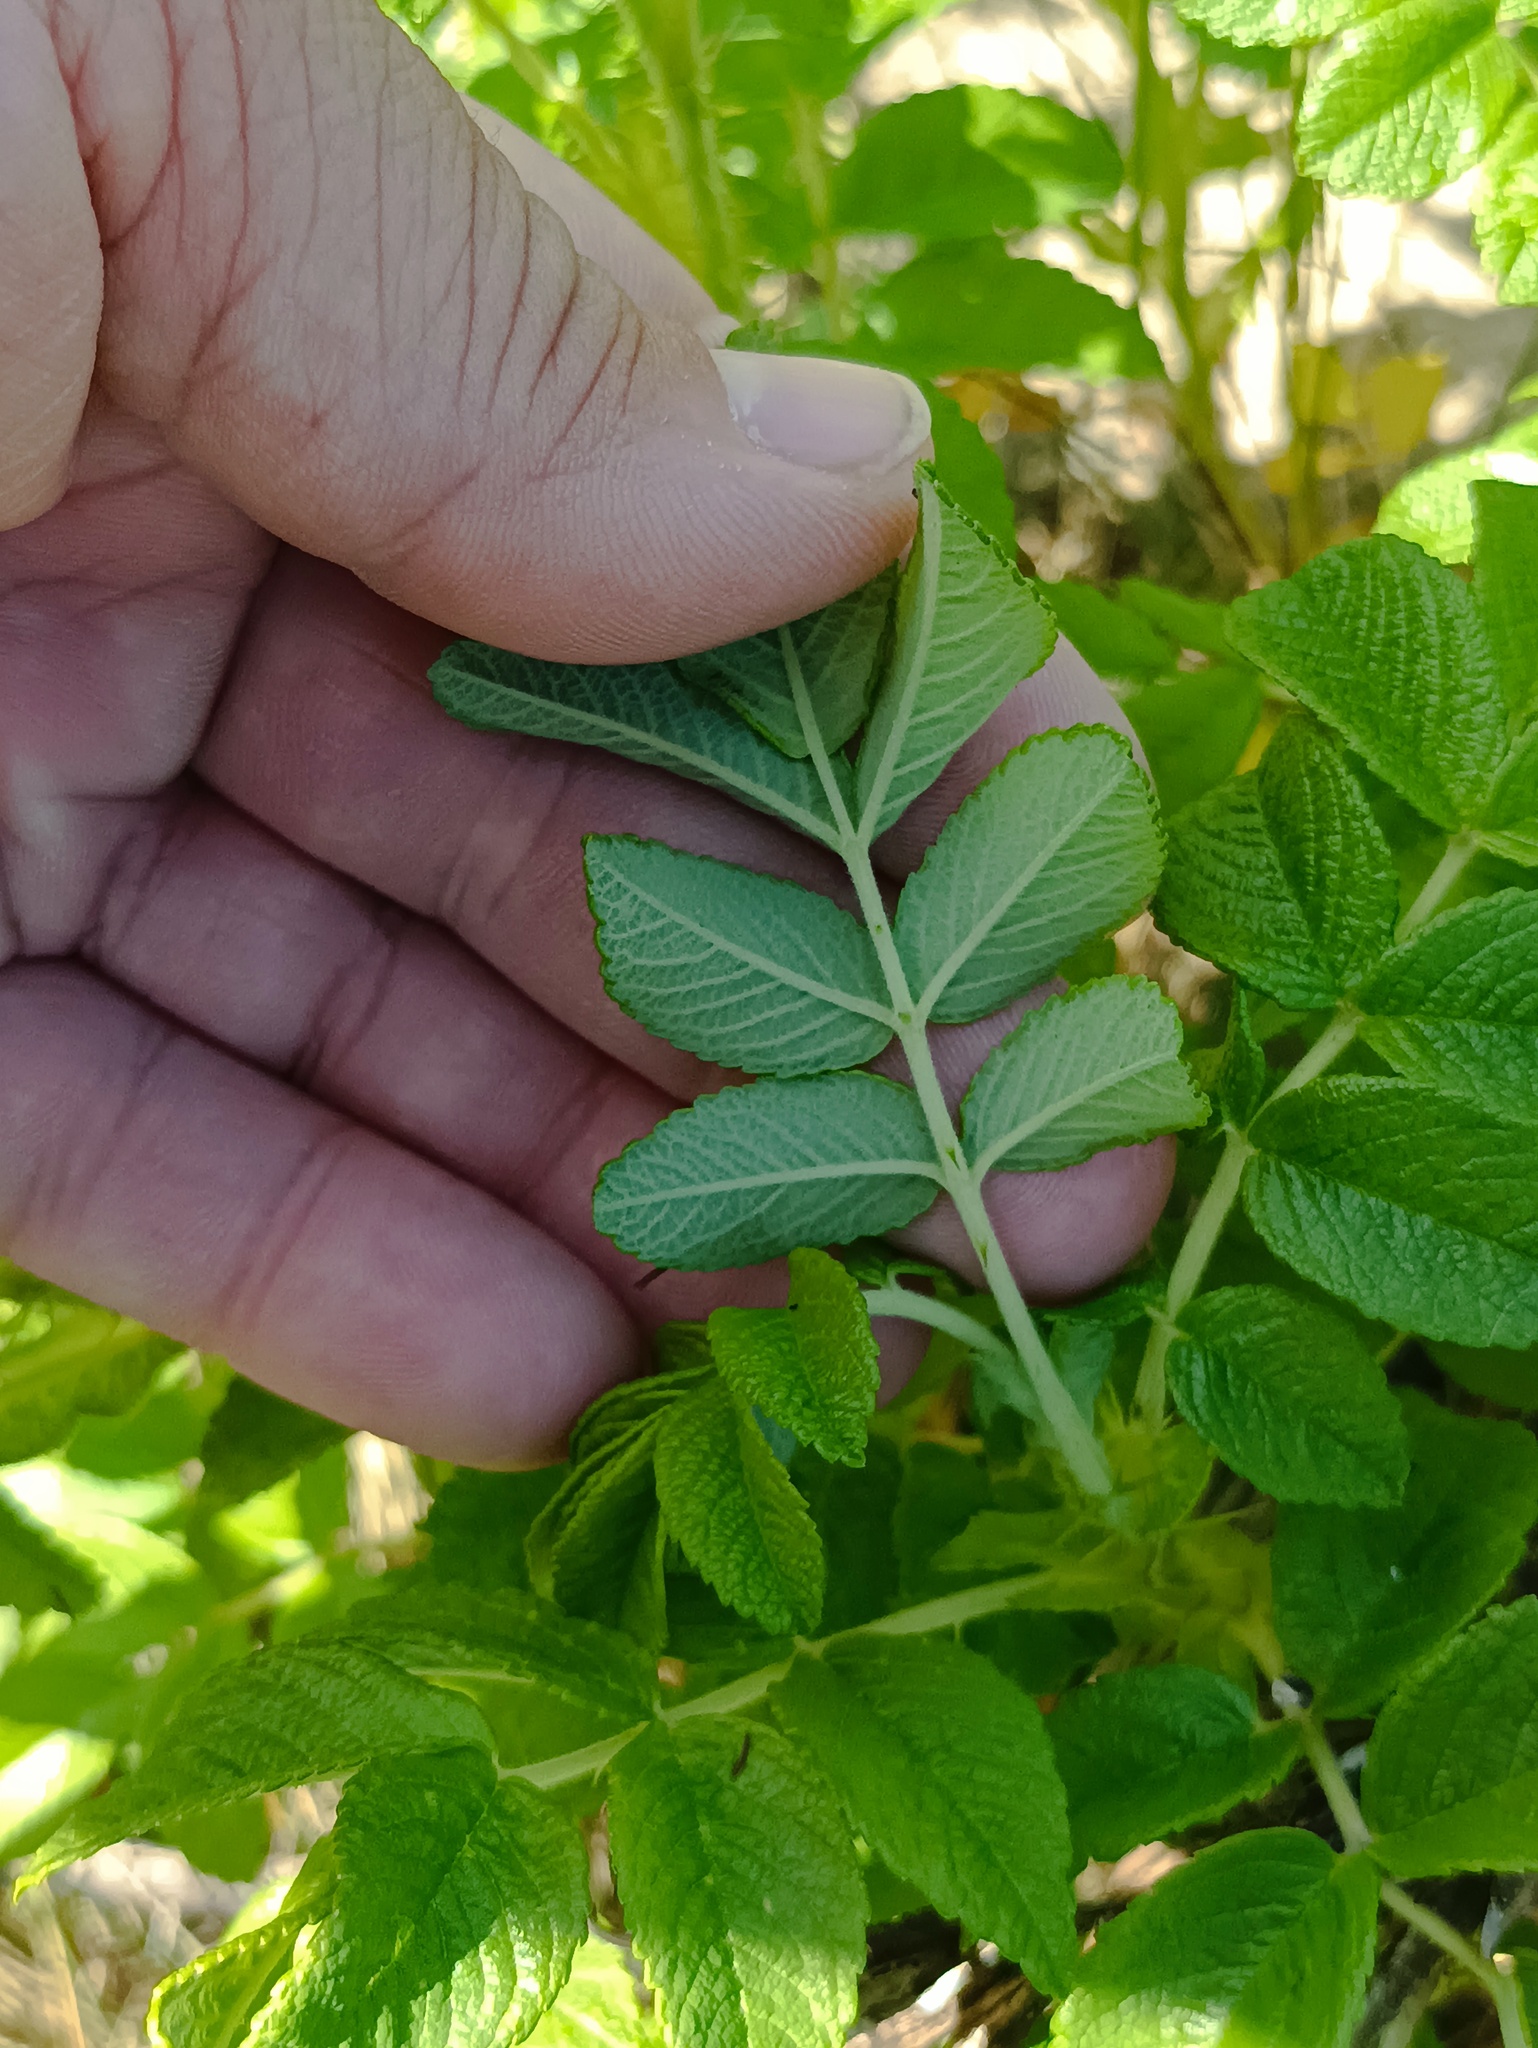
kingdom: Plantae
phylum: Tracheophyta
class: Magnoliopsida
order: Rosales
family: Rosaceae
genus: Rosa
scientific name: Rosa rugosa
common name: Japanese rose
